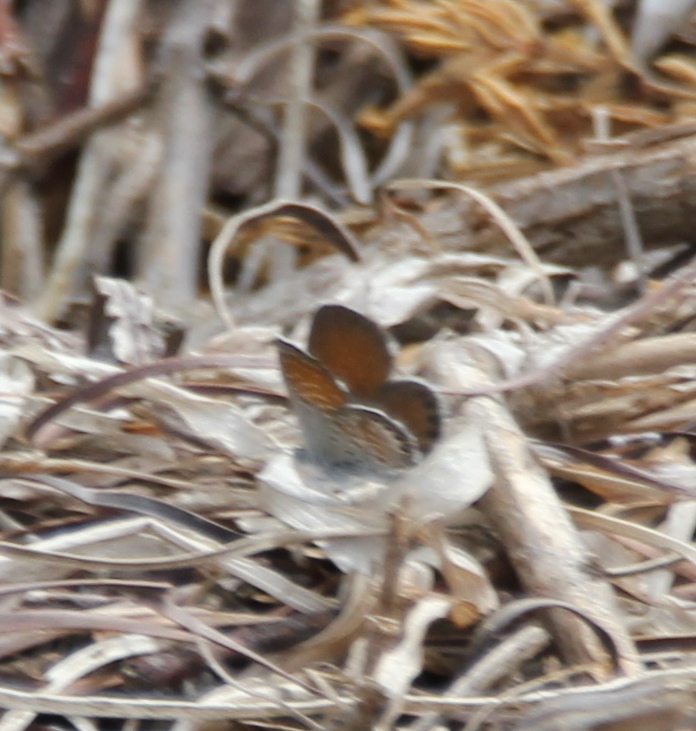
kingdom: Animalia
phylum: Arthropoda
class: Insecta
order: Lepidoptera
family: Lycaenidae
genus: Brephidium
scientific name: Brephidium exilis
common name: Pygmy blue
